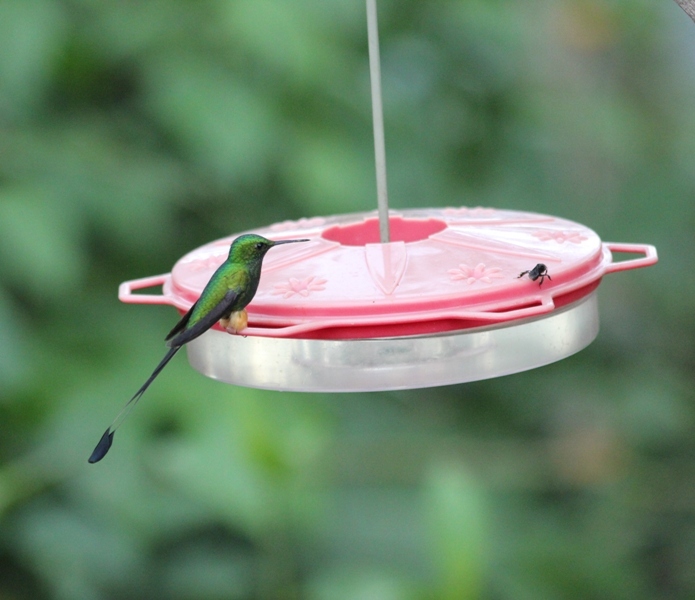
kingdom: Animalia
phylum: Chordata
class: Aves
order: Apodiformes
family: Trochilidae
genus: Ocreatus
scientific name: Ocreatus peruanus
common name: Peruvian racket-tail
